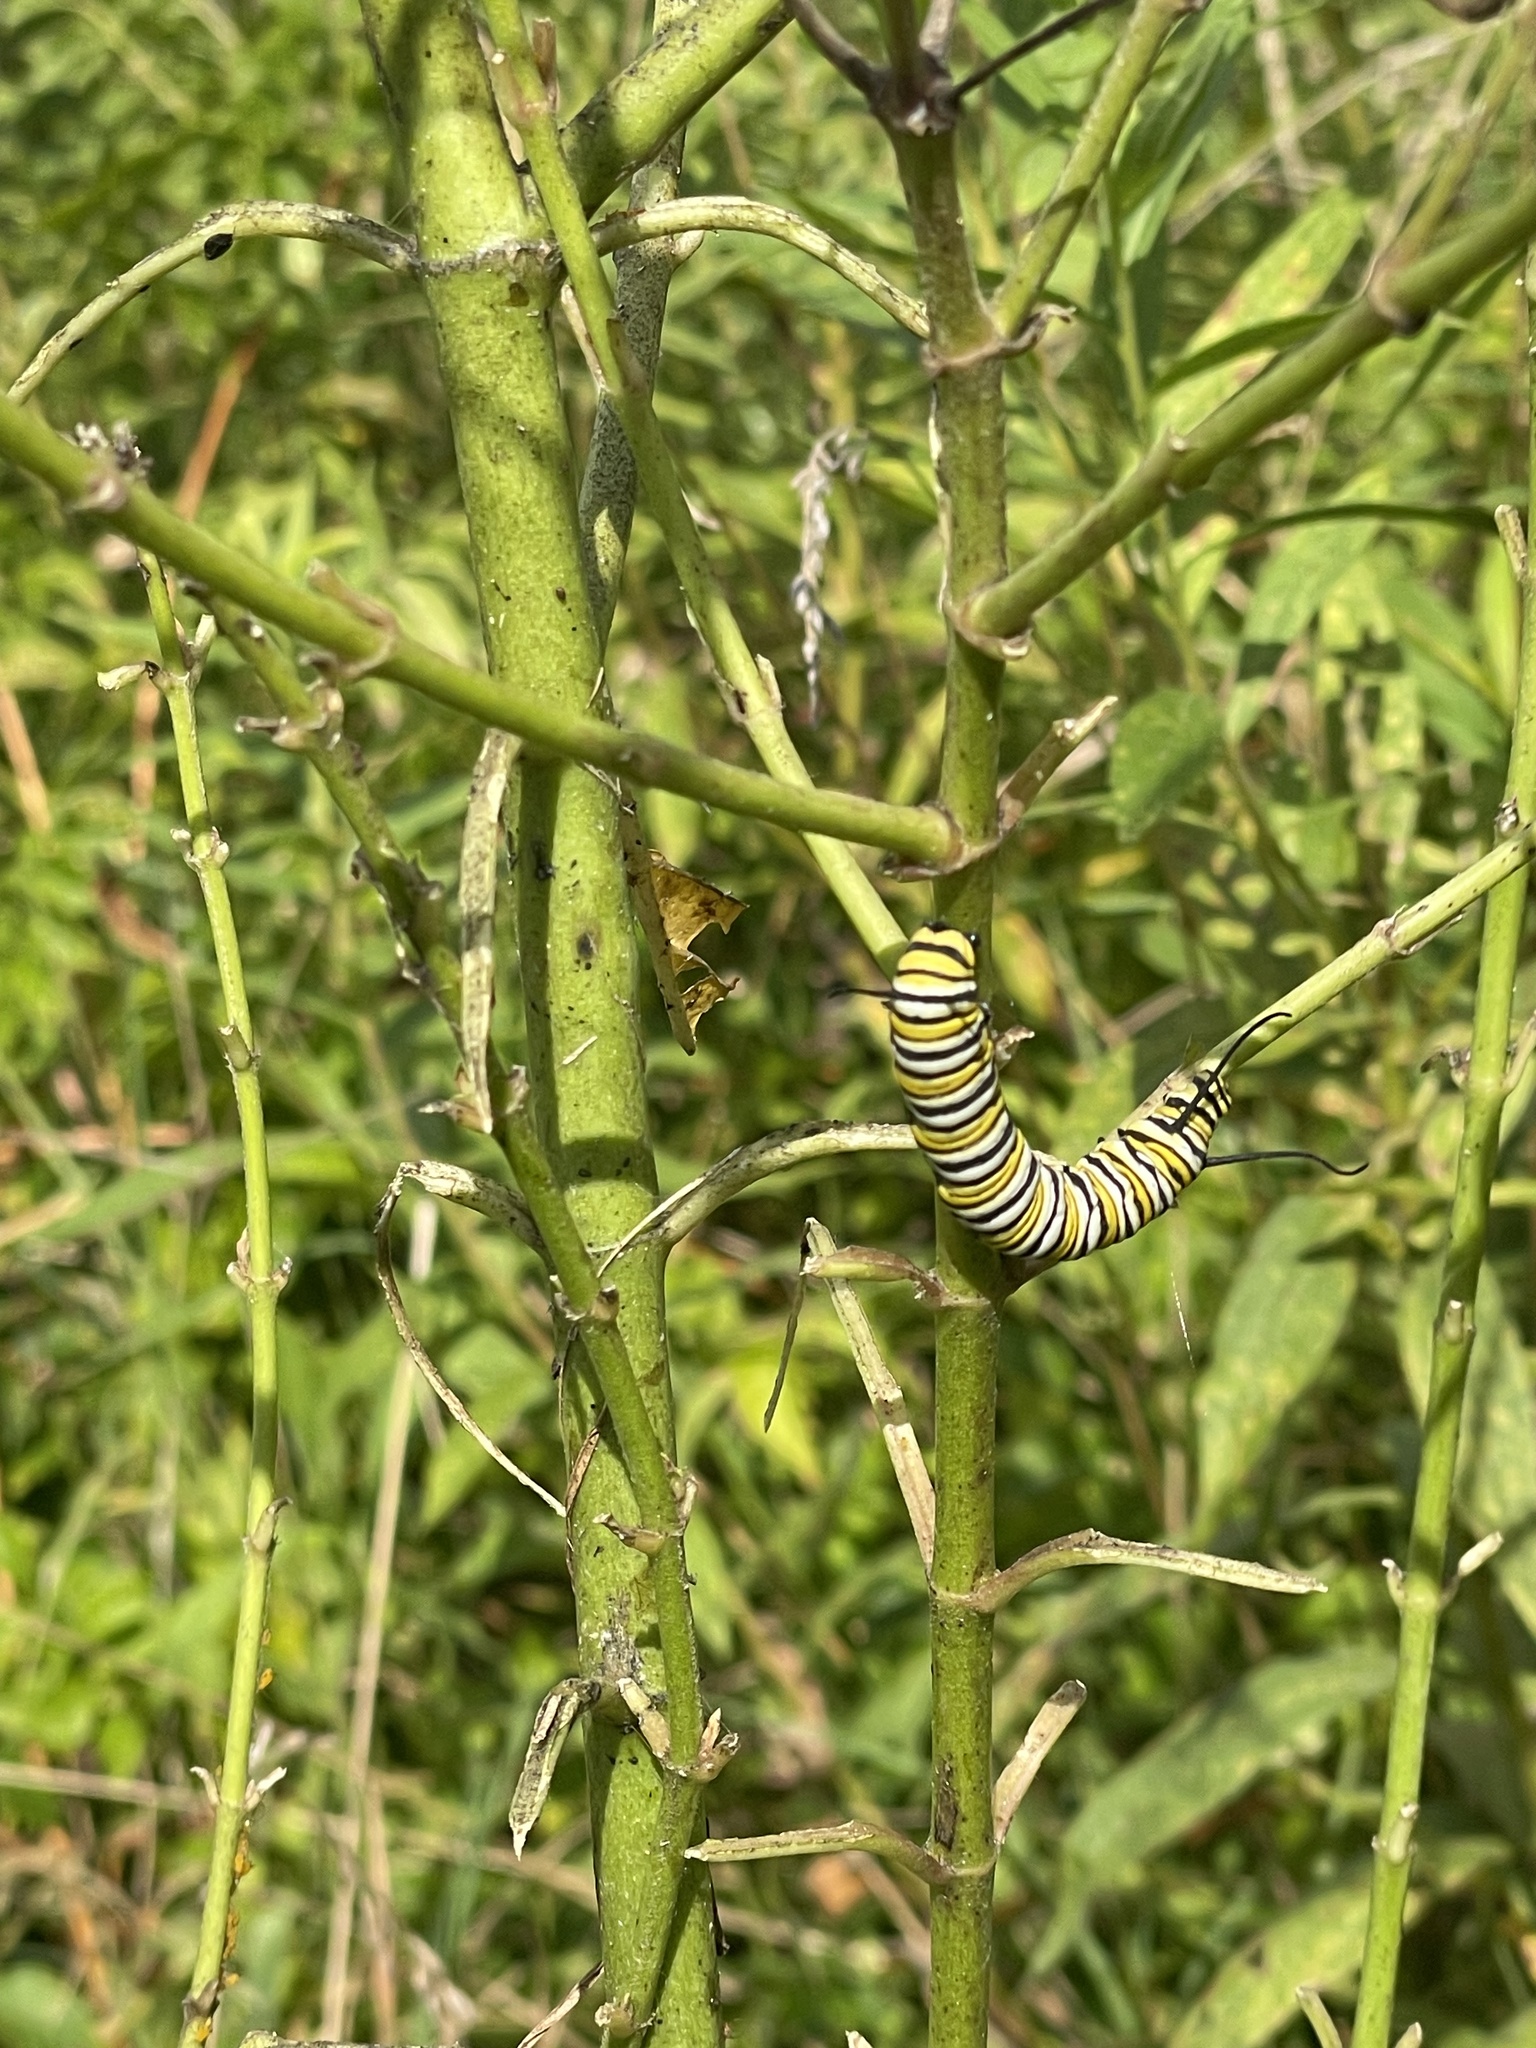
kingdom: Animalia
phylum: Arthropoda
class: Insecta
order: Lepidoptera
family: Nymphalidae
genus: Danaus
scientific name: Danaus plexippus
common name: Monarch
